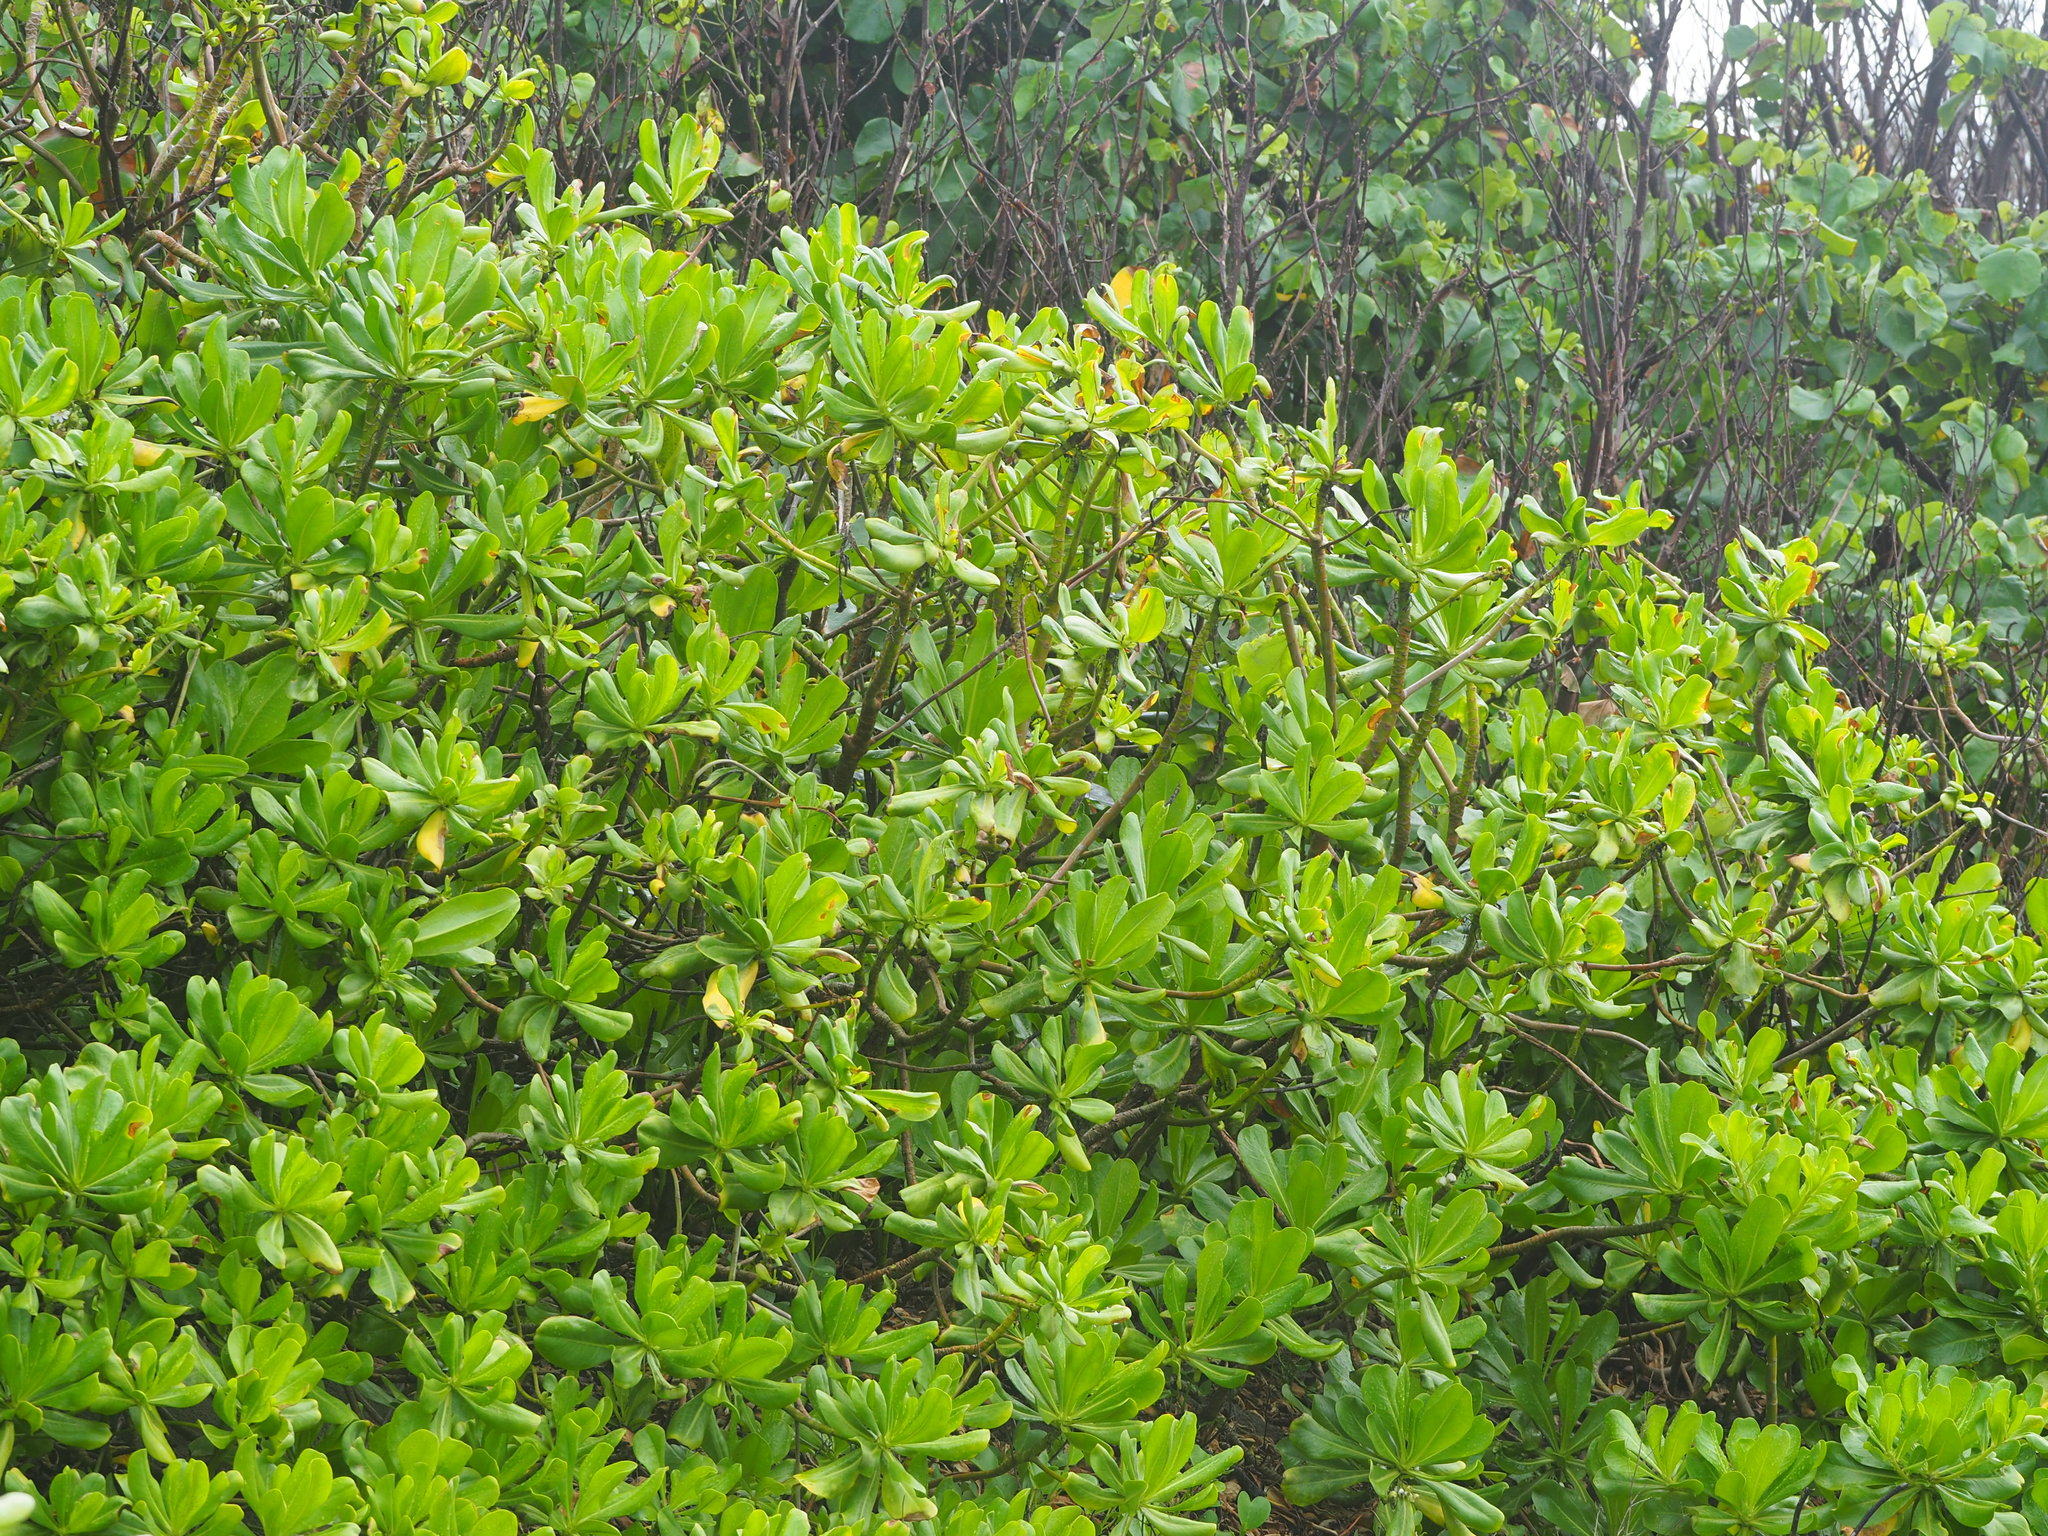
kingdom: Plantae
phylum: Tracheophyta
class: Magnoliopsida
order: Asterales
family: Goodeniaceae
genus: Scaevola
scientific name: Scaevola taccada
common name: Sea lettucetree
